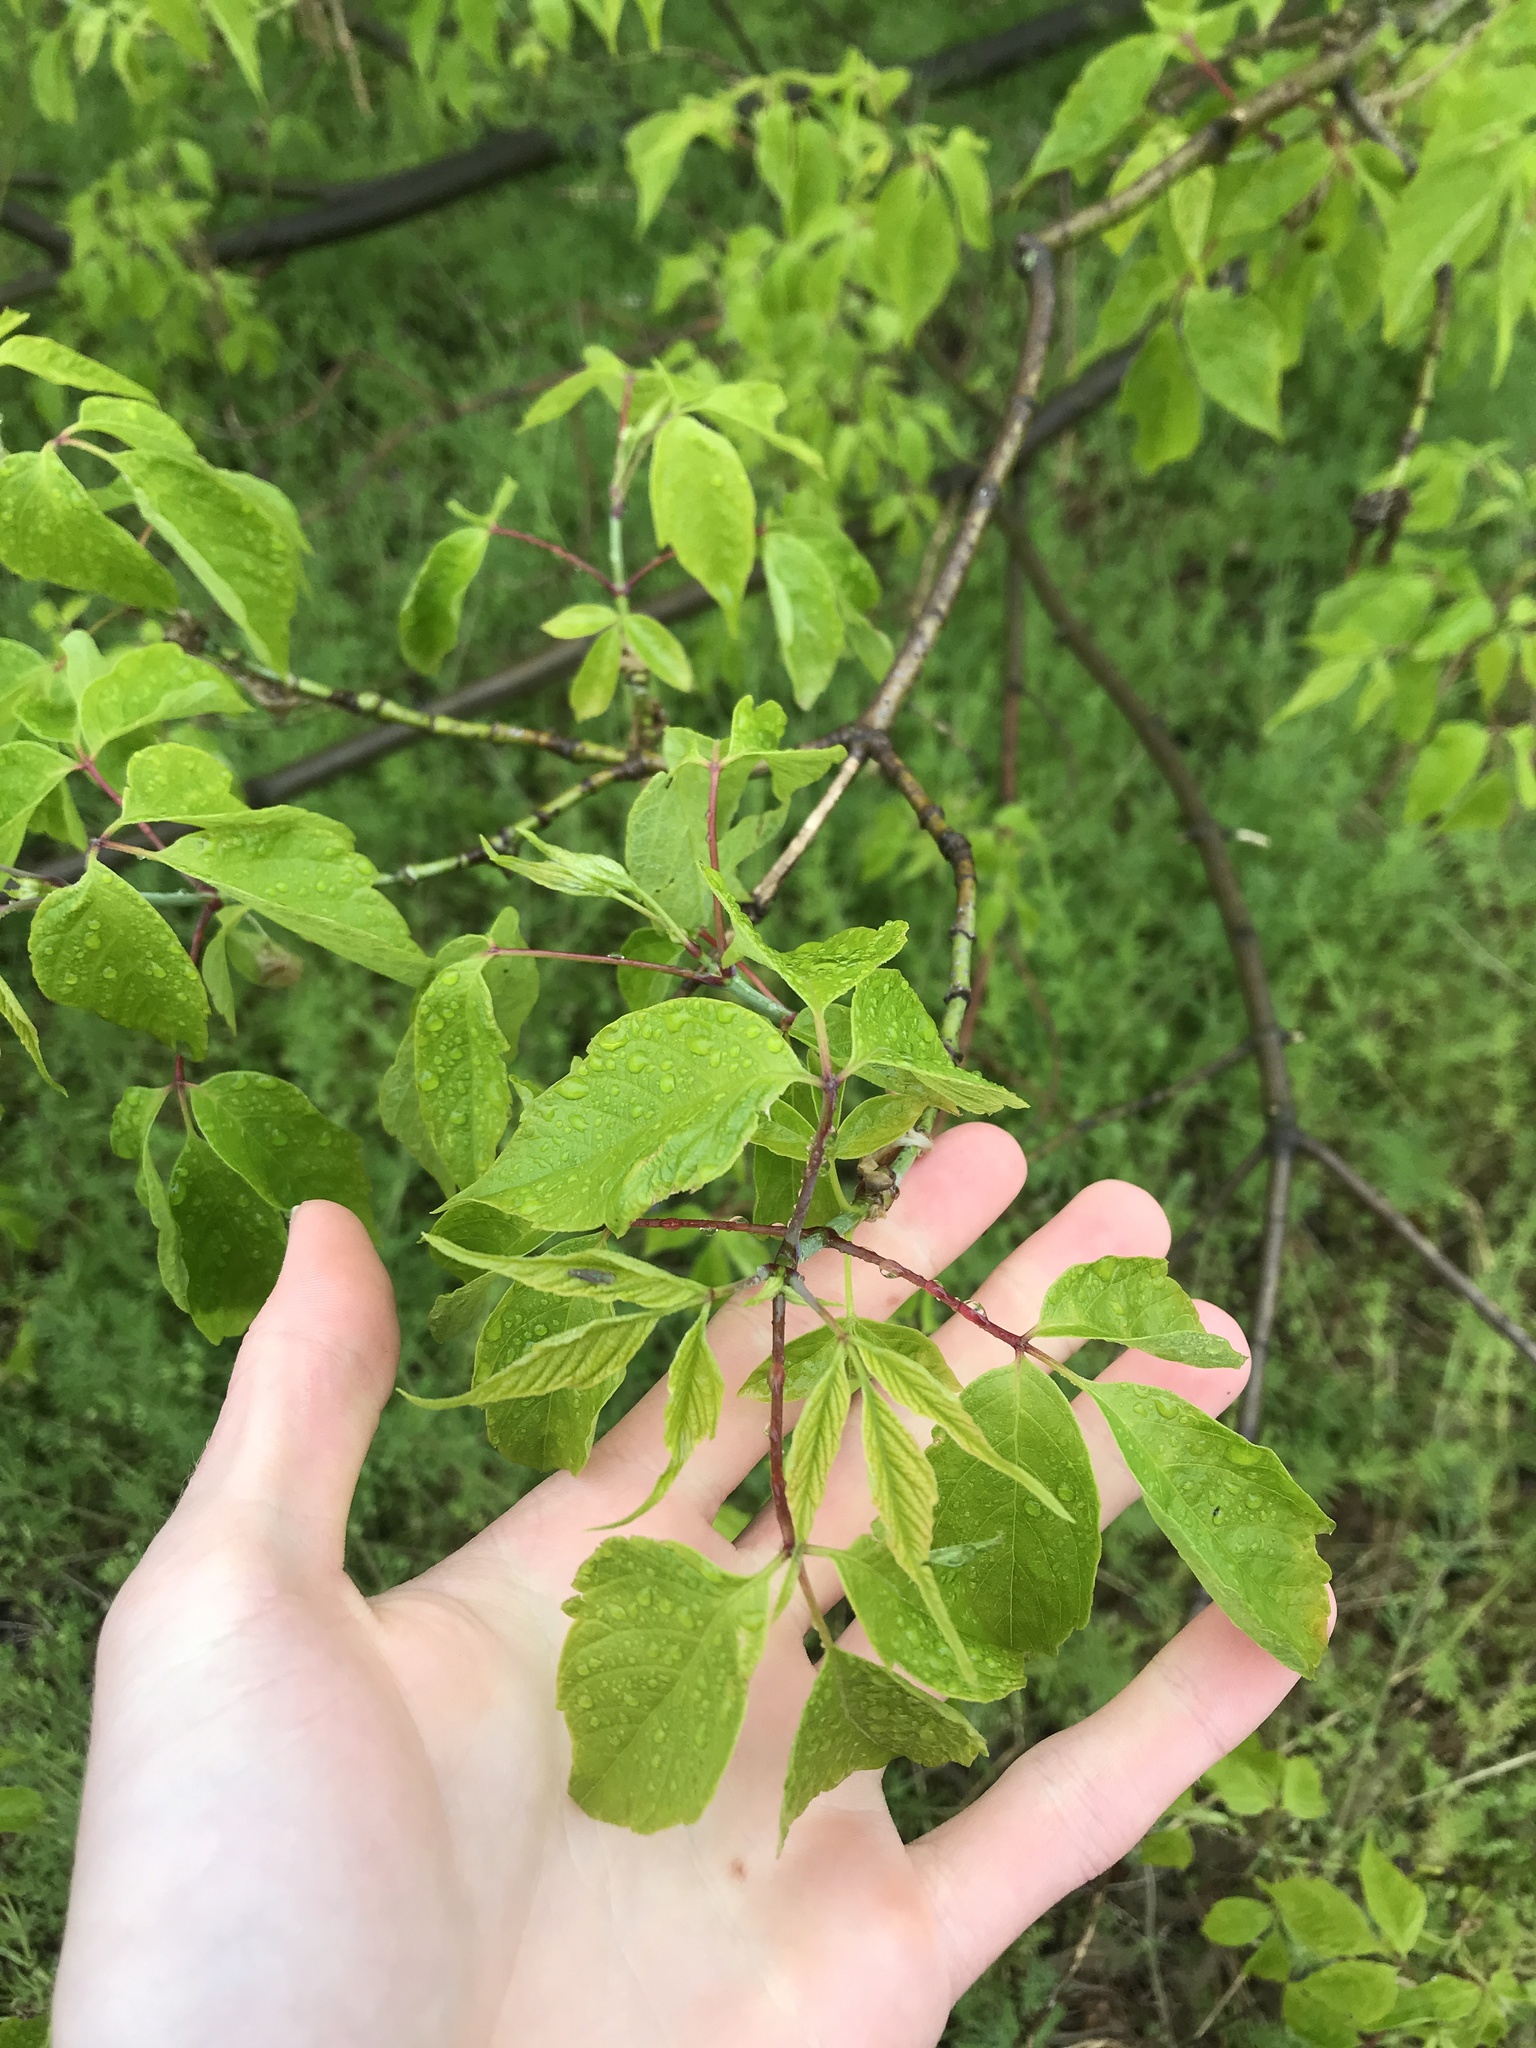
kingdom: Plantae
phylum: Tracheophyta
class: Magnoliopsida
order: Sapindales
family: Sapindaceae
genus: Acer
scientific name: Acer negundo
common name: Ashleaf maple
